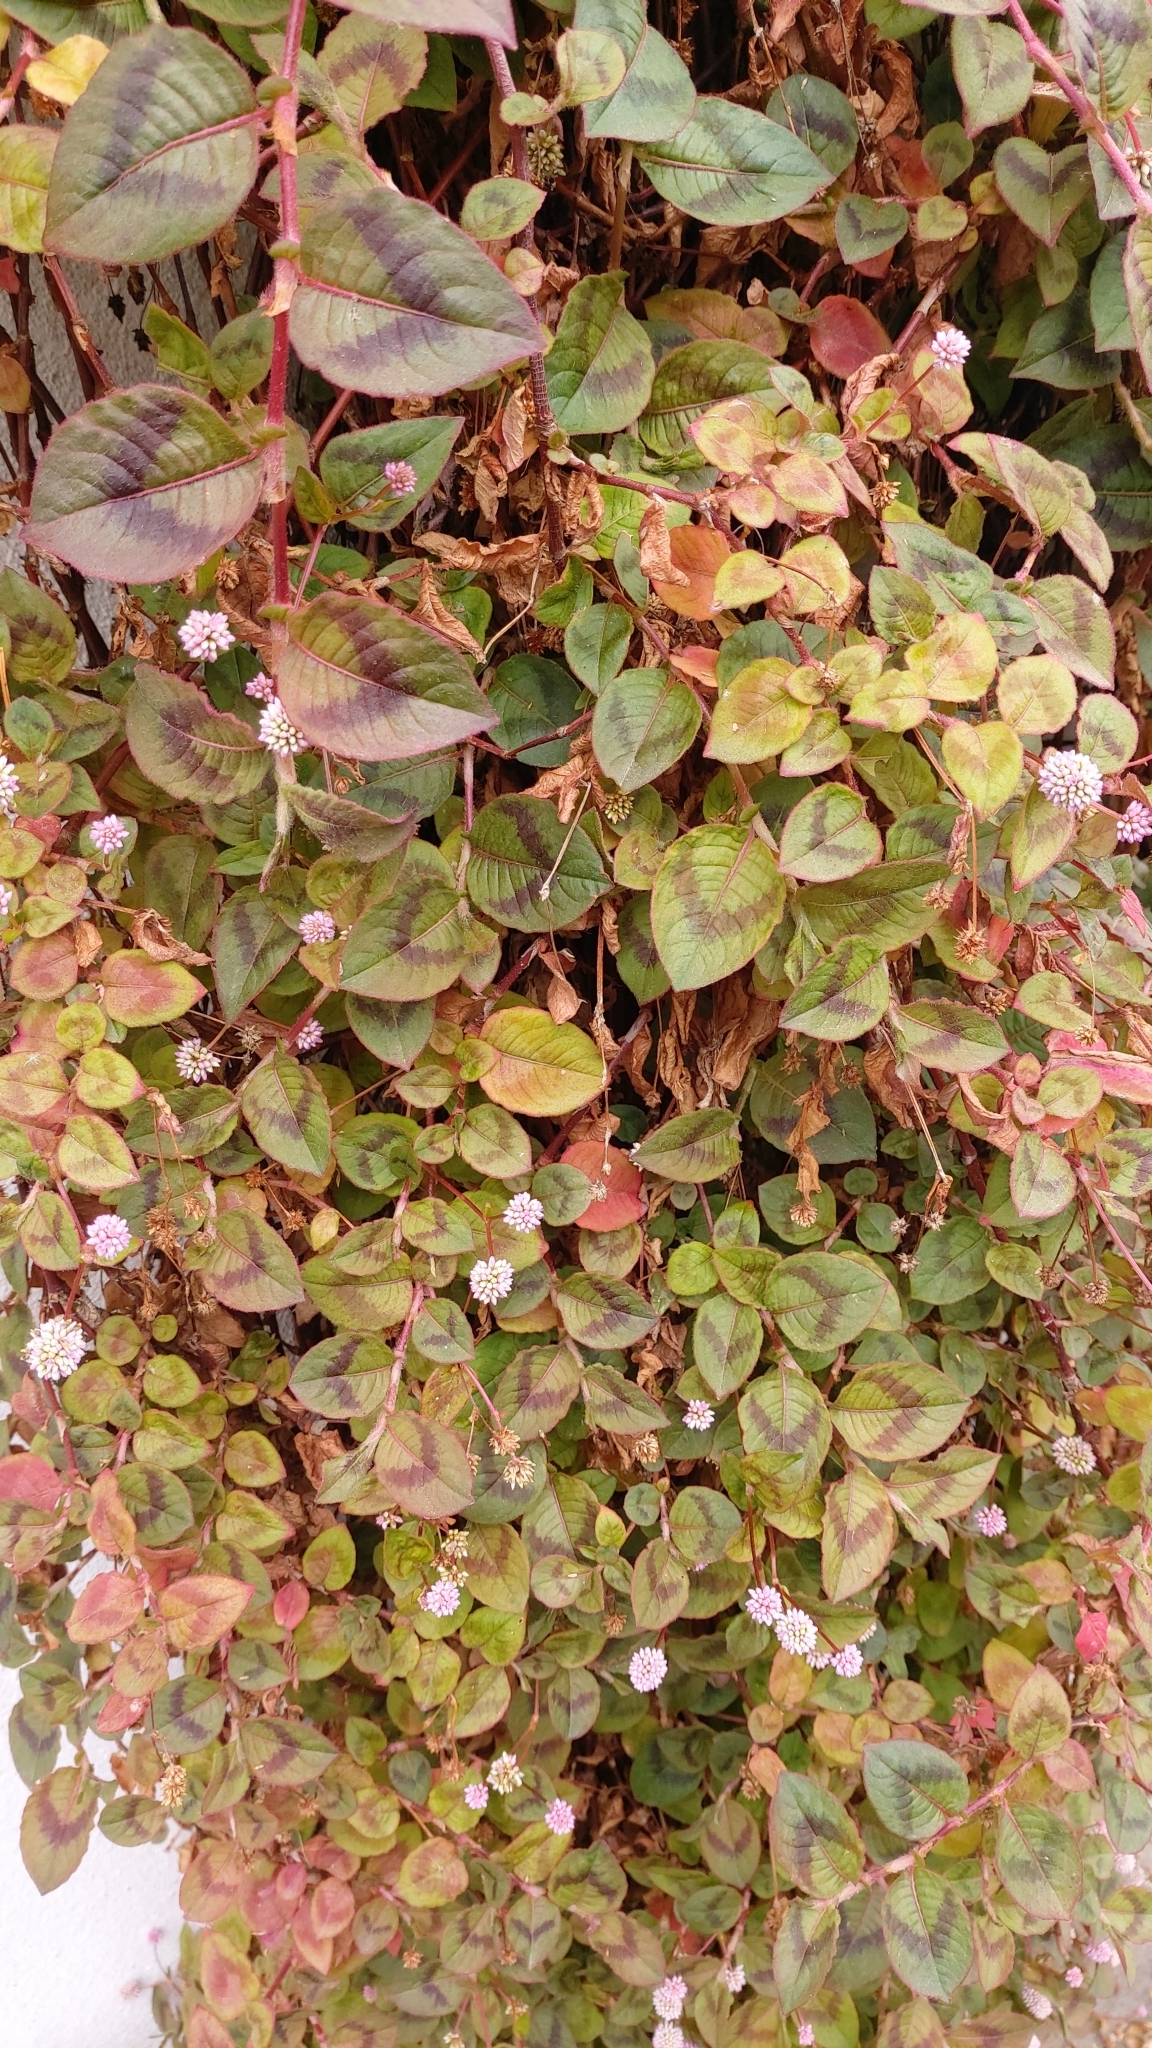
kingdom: Plantae
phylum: Tracheophyta
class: Magnoliopsida
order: Caryophyllales
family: Polygonaceae
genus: Persicaria
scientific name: Persicaria capitata
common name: Pinkhead smartweed
